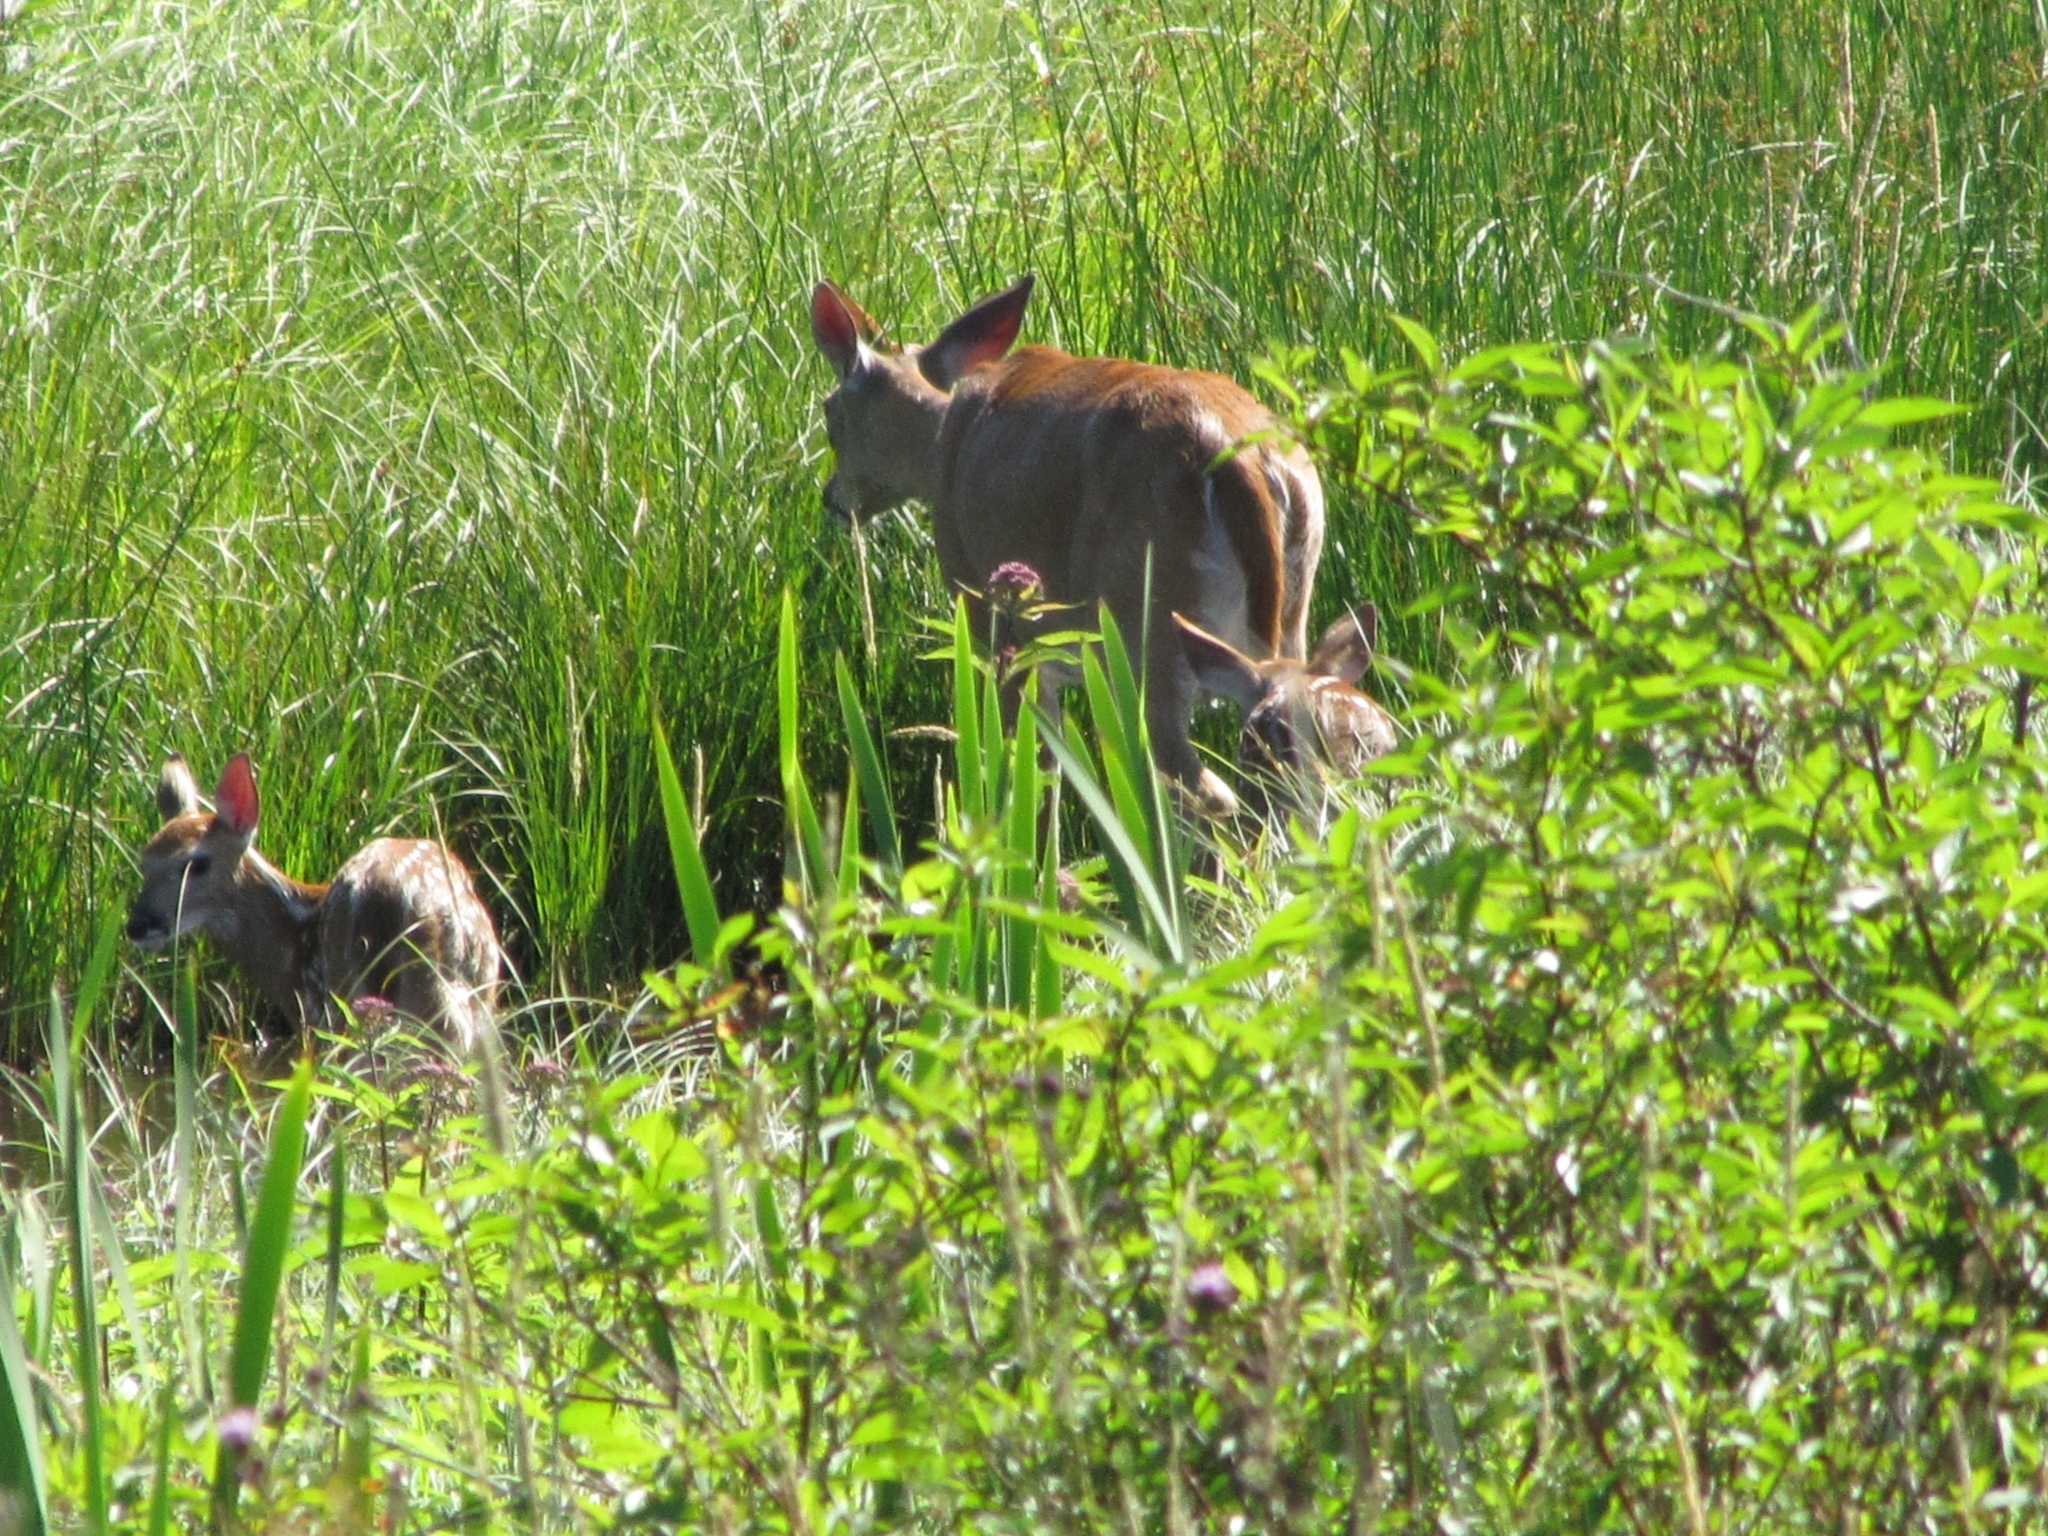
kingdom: Animalia
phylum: Chordata
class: Mammalia
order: Artiodactyla
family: Cervidae
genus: Odocoileus
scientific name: Odocoileus virginianus
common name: White-tailed deer
